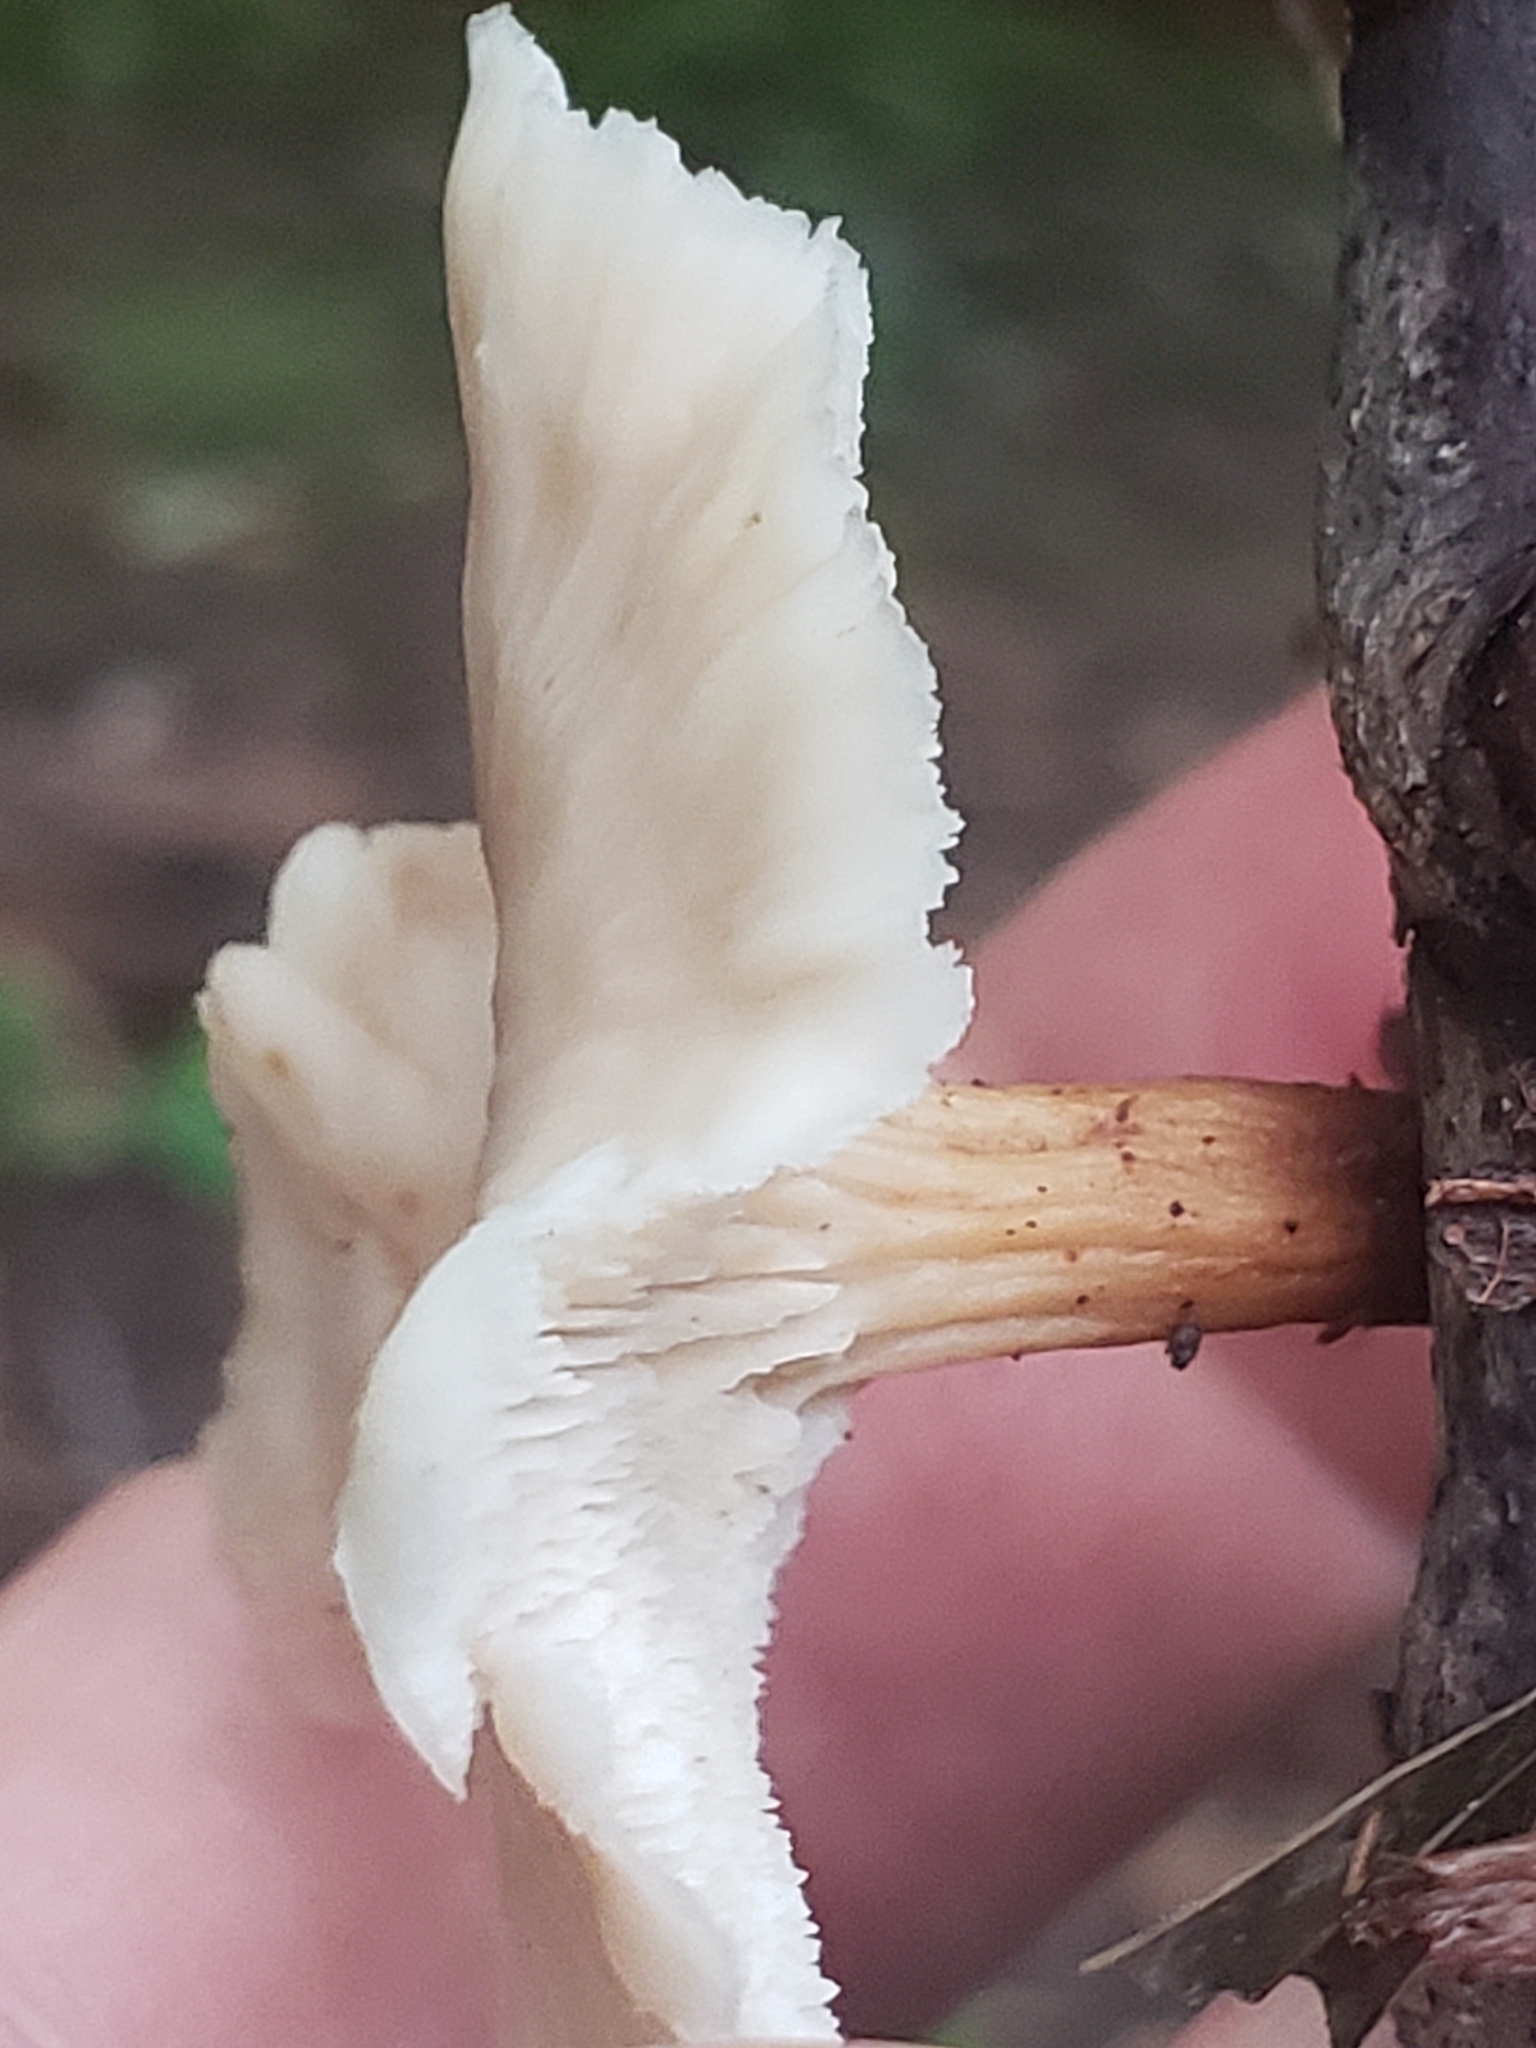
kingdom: Fungi
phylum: Basidiomycota
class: Agaricomycetes
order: Russulales
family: Auriscalpiaceae
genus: Lentinellus
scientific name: Lentinellus micheneri
